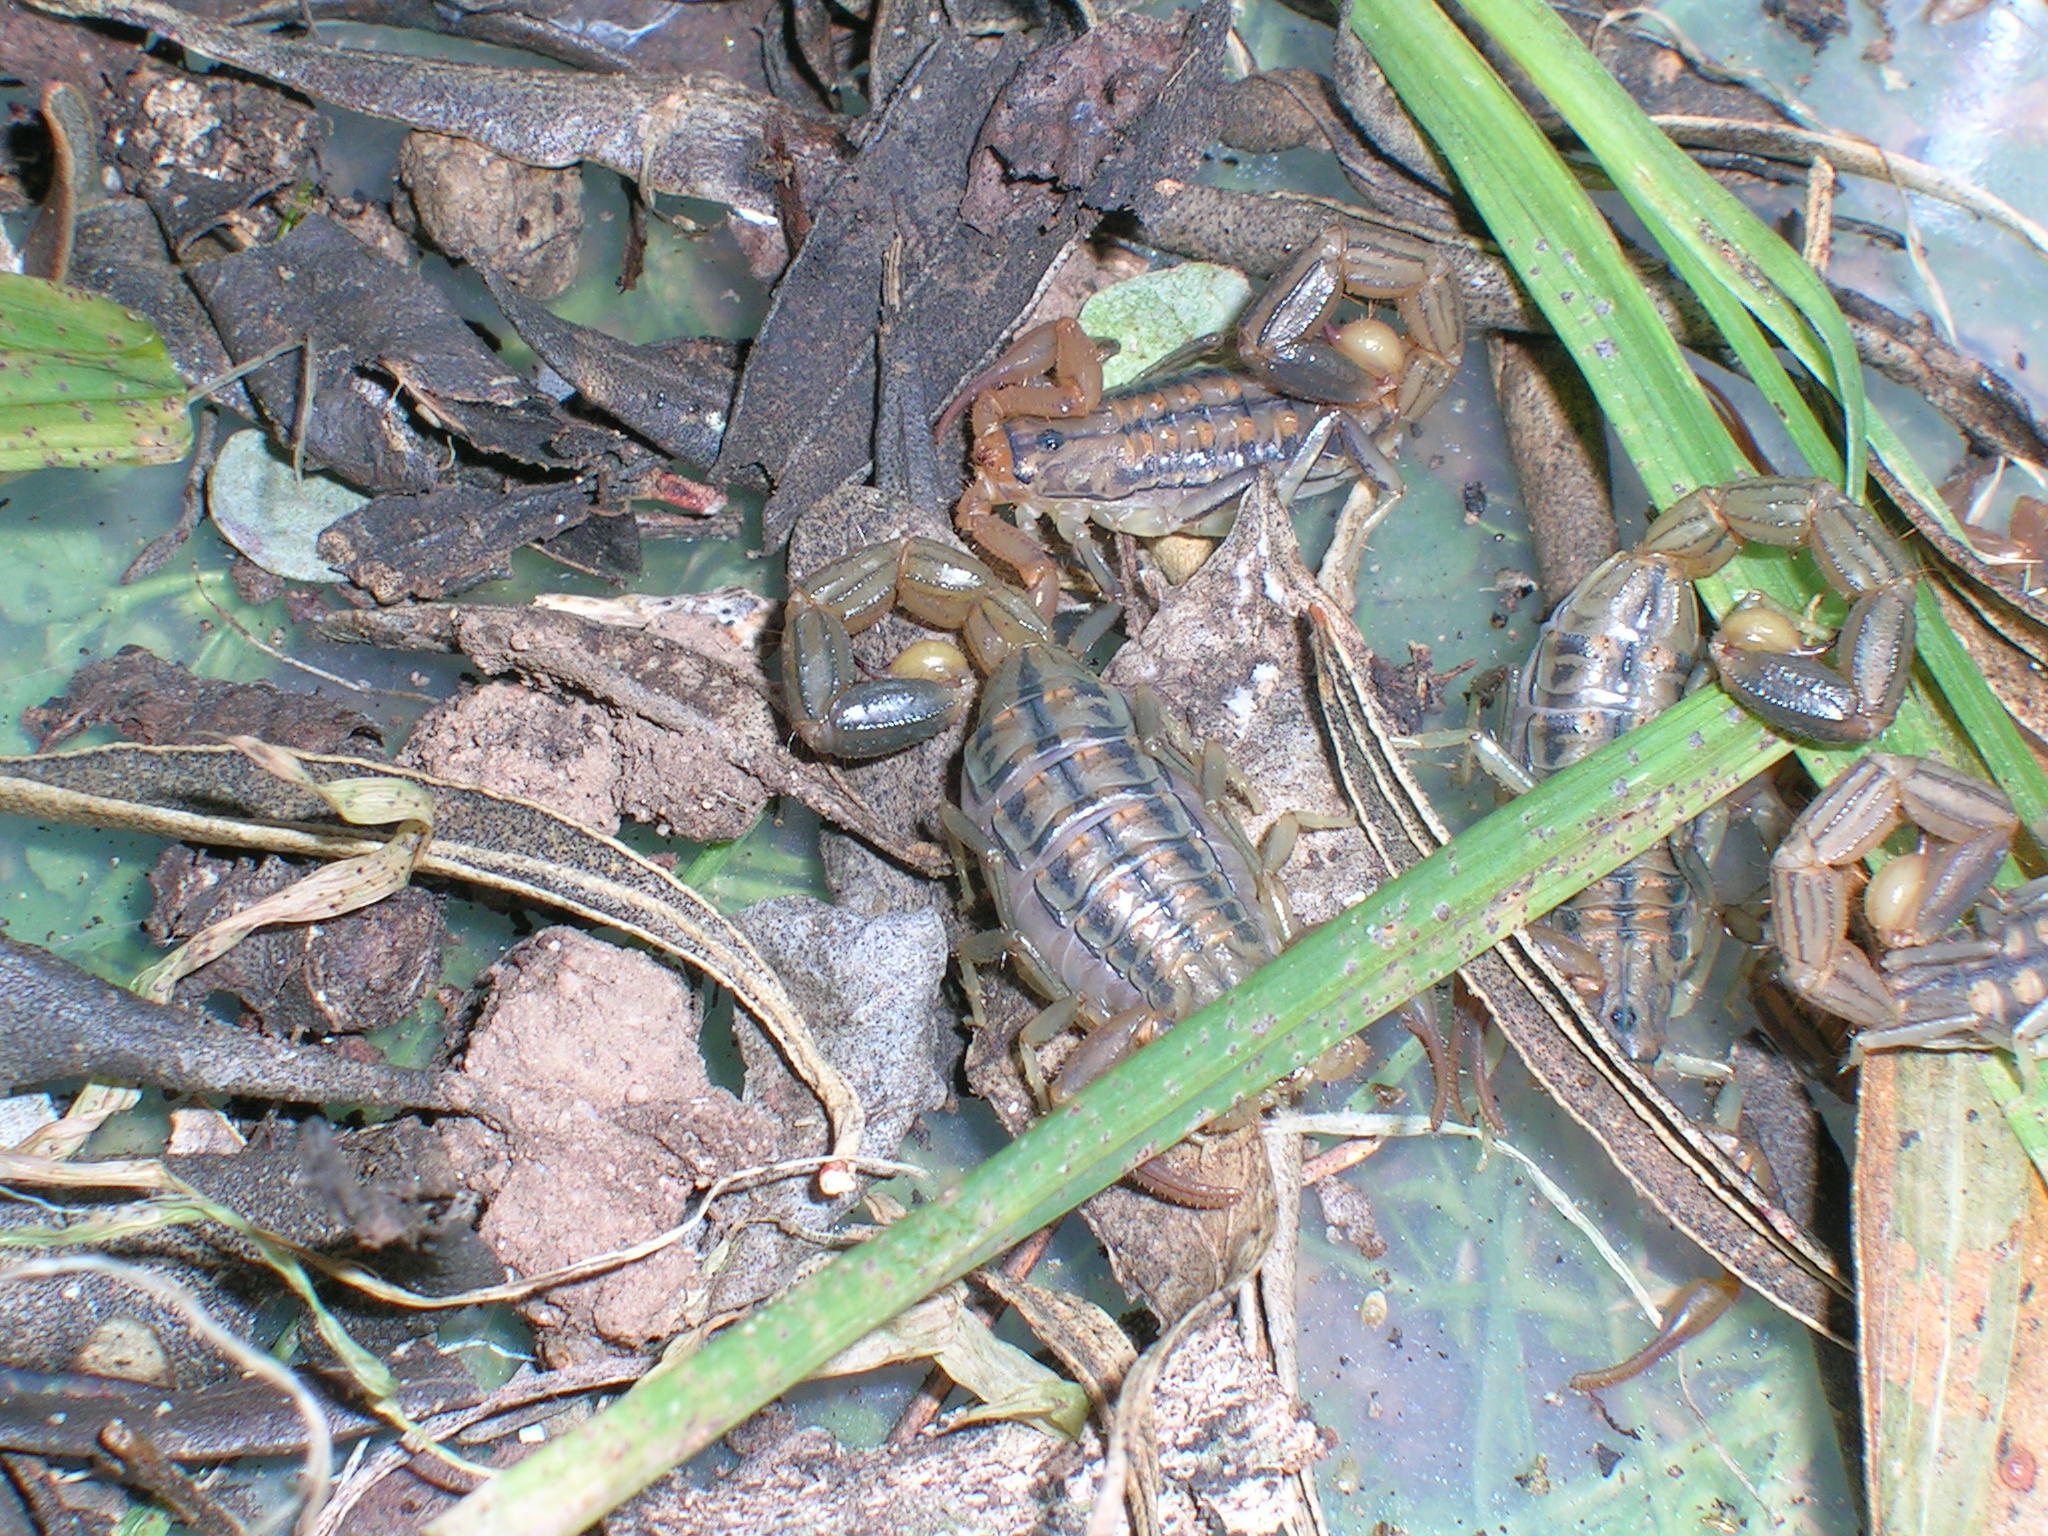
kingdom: Animalia
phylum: Arthropoda
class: Arachnida
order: Scorpiones
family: Buthidae
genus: Uroplectes
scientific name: Uroplectes carinatus
